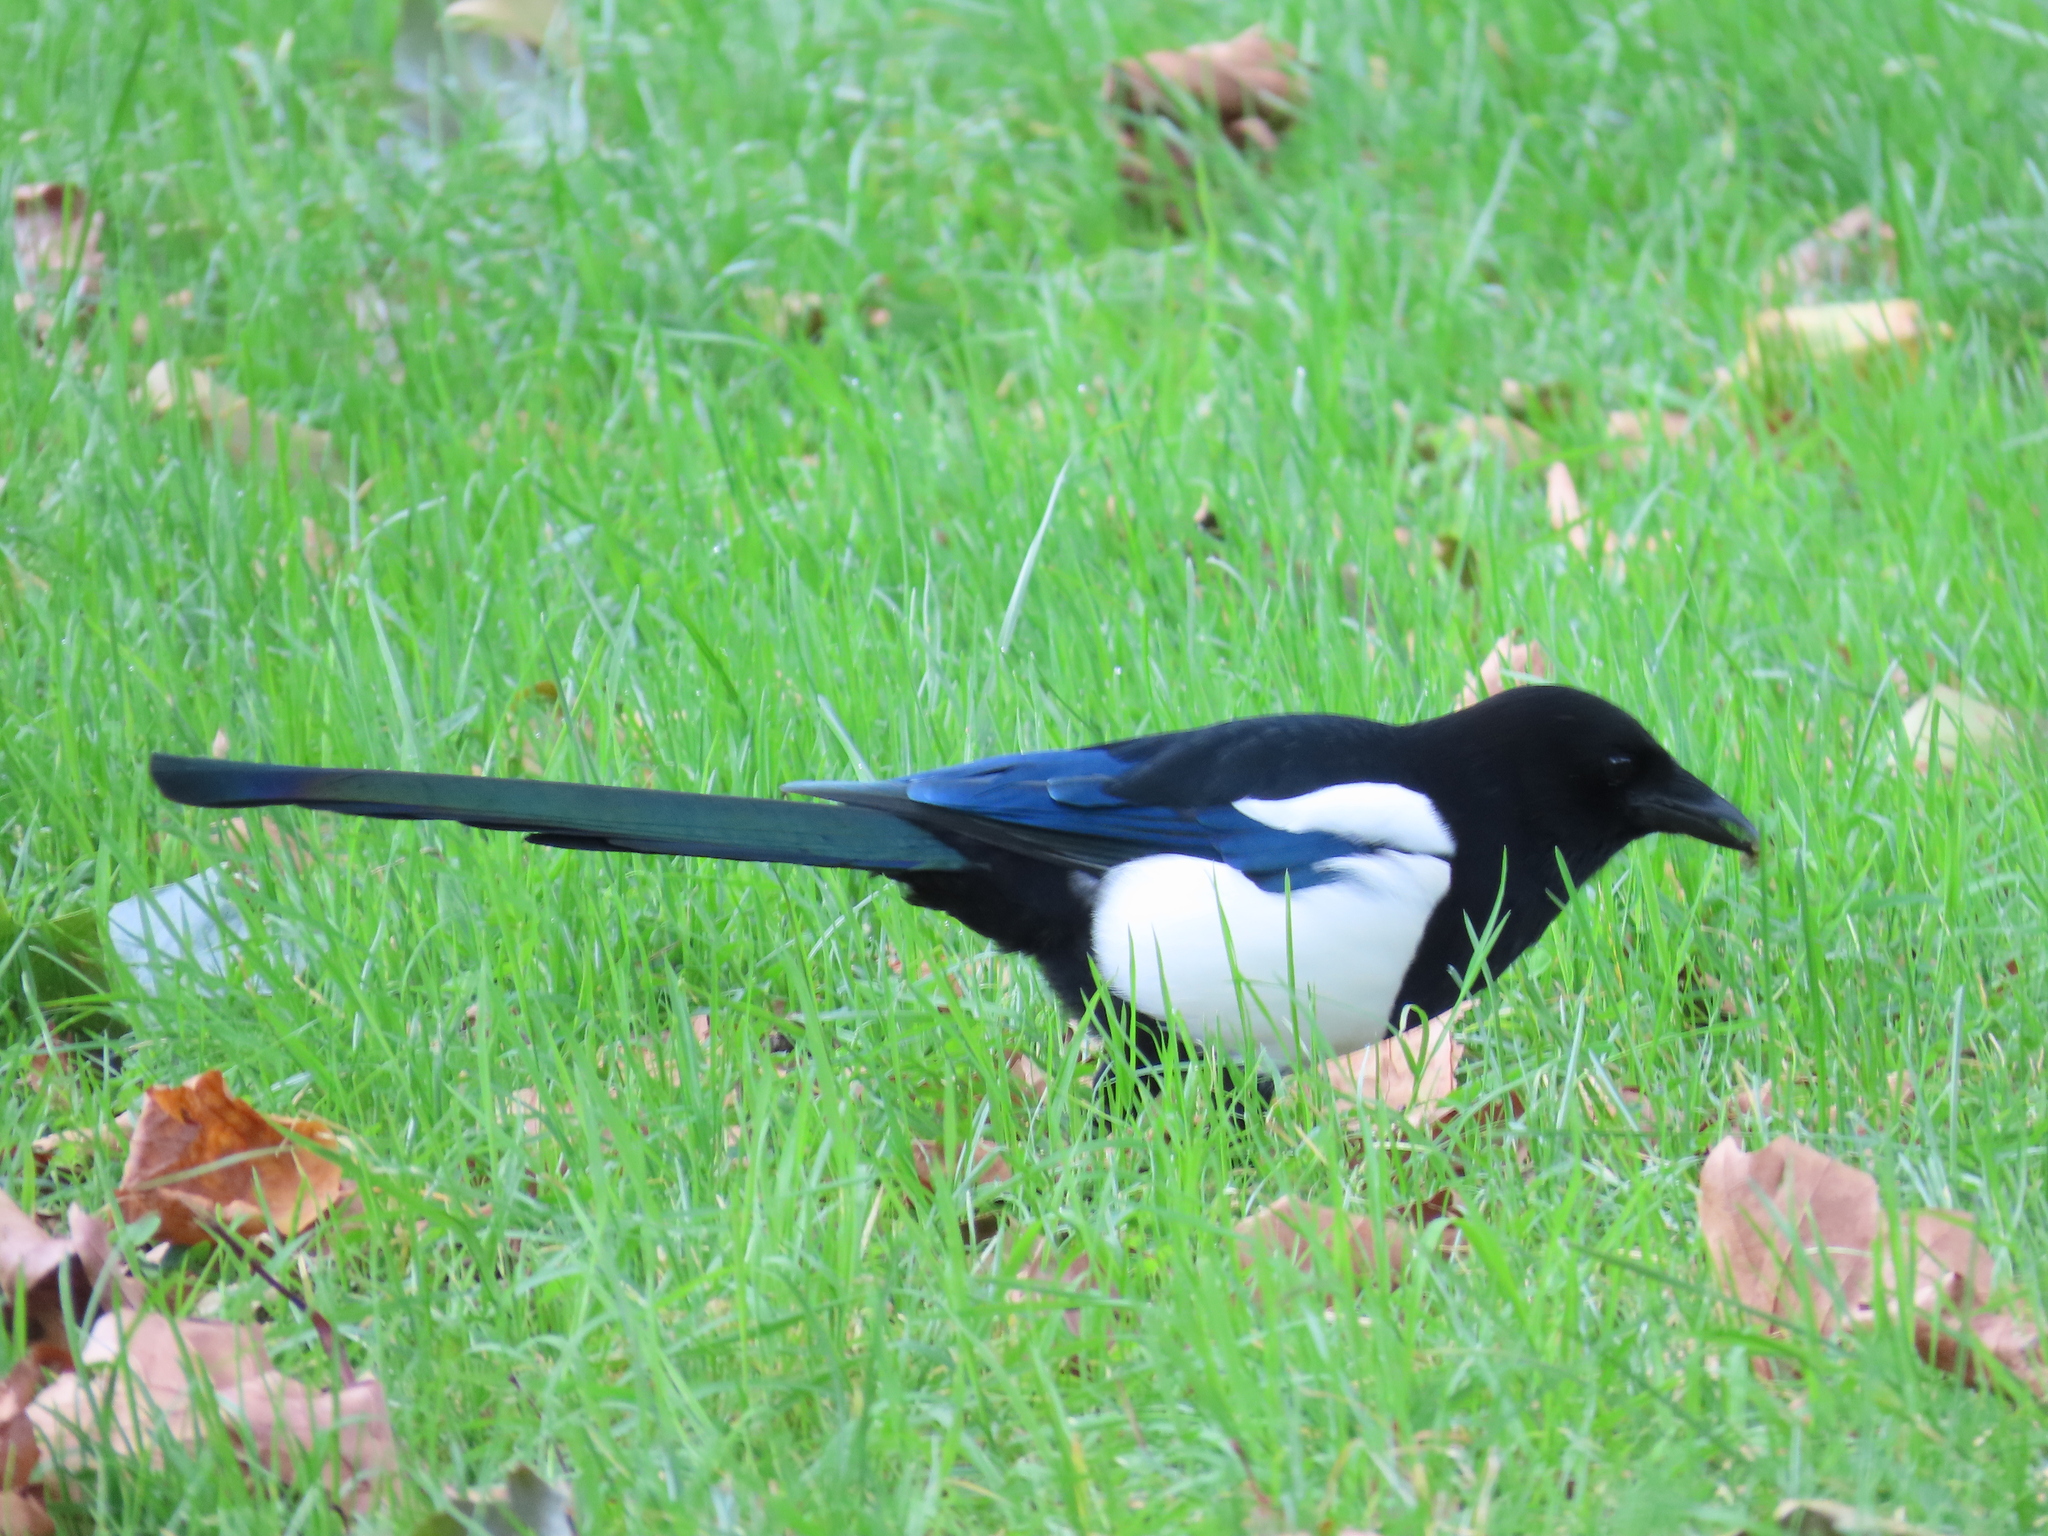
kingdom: Animalia
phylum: Chordata
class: Aves
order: Passeriformes
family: Corvidae
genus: Pica
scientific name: Pica pica
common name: Eurasian magpie
